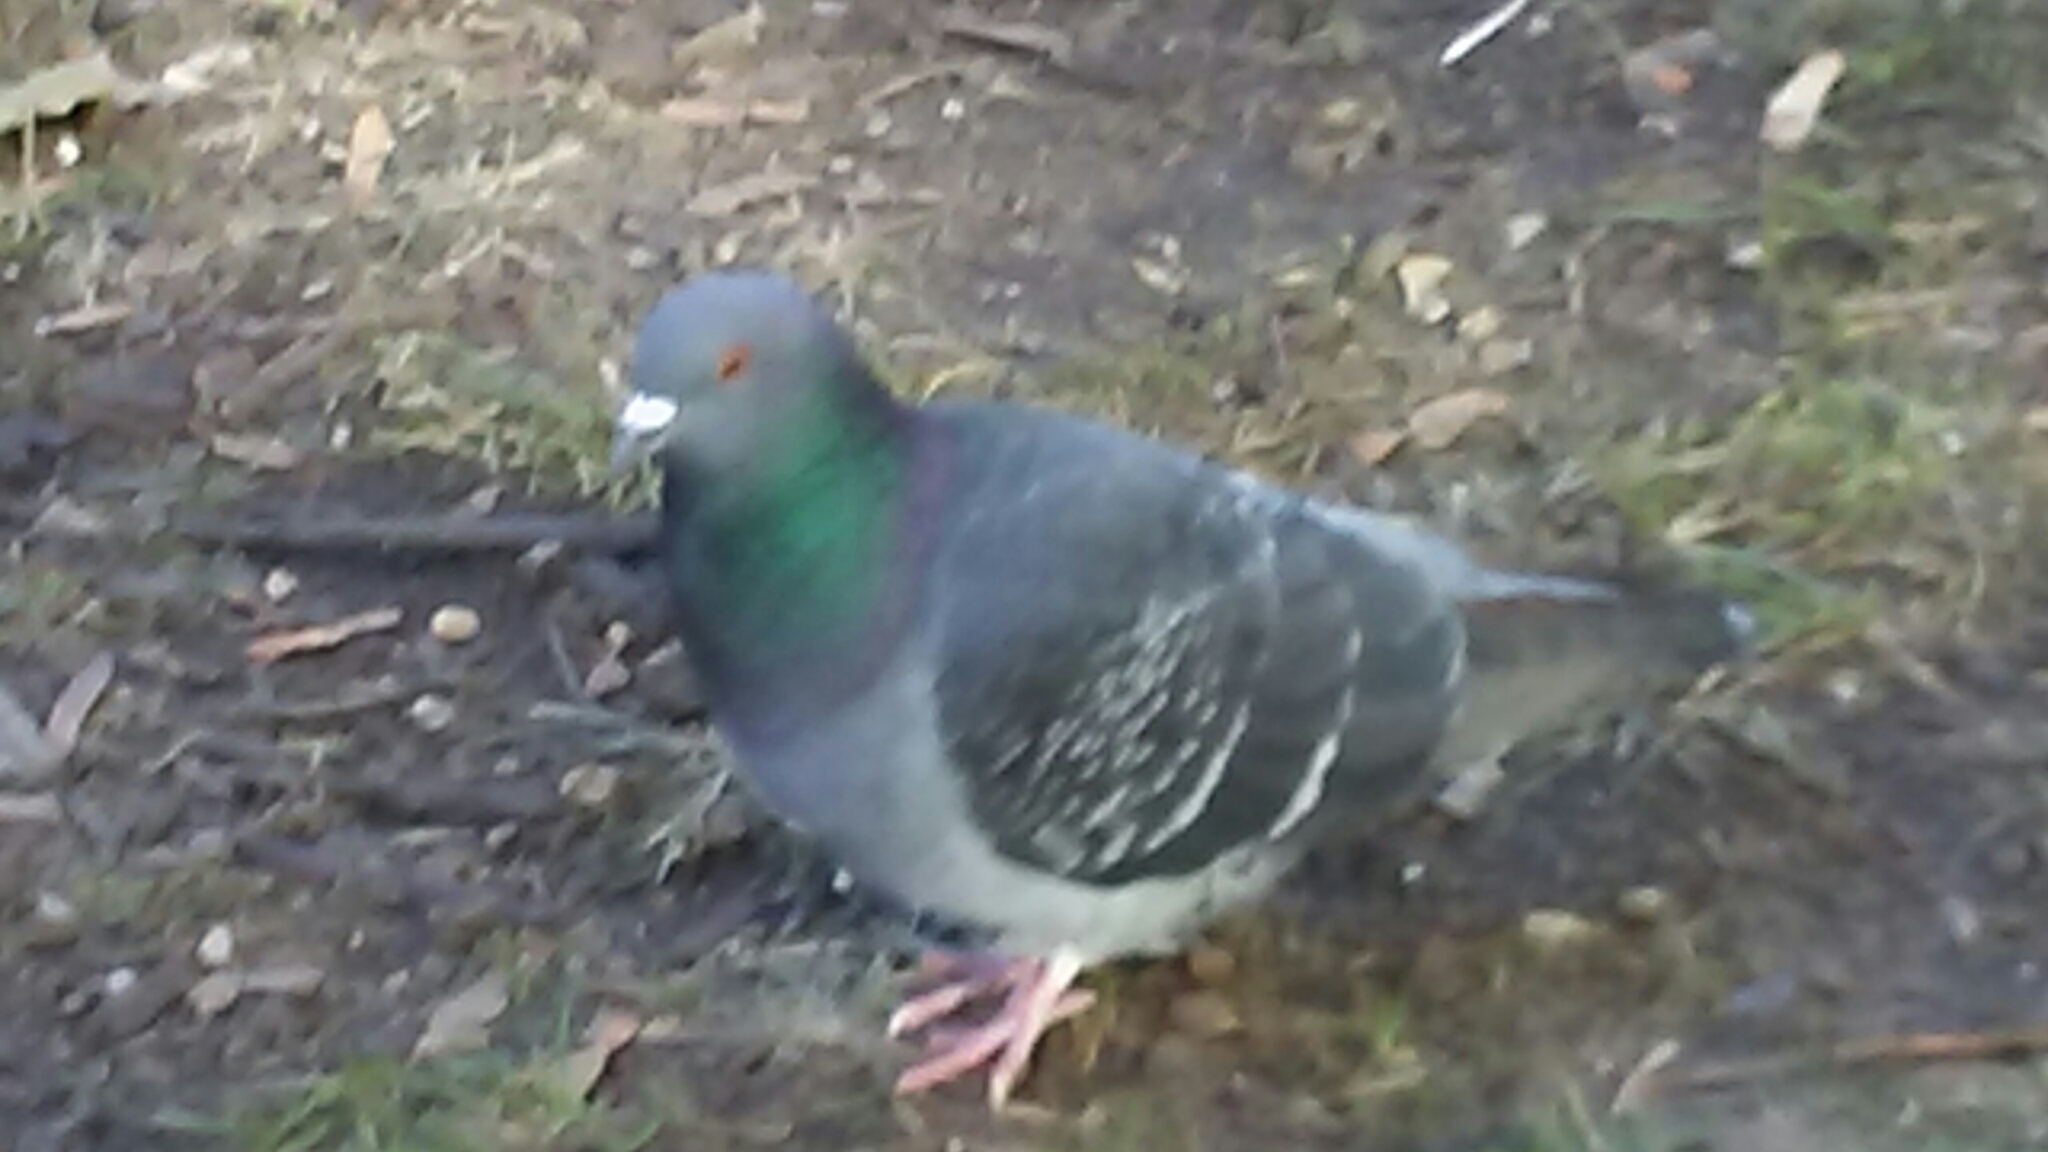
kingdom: Animalia
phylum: Chordata
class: Aves
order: Columbiformes
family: Columbidae
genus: Columba
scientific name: Columba livia
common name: Rock pigeon
